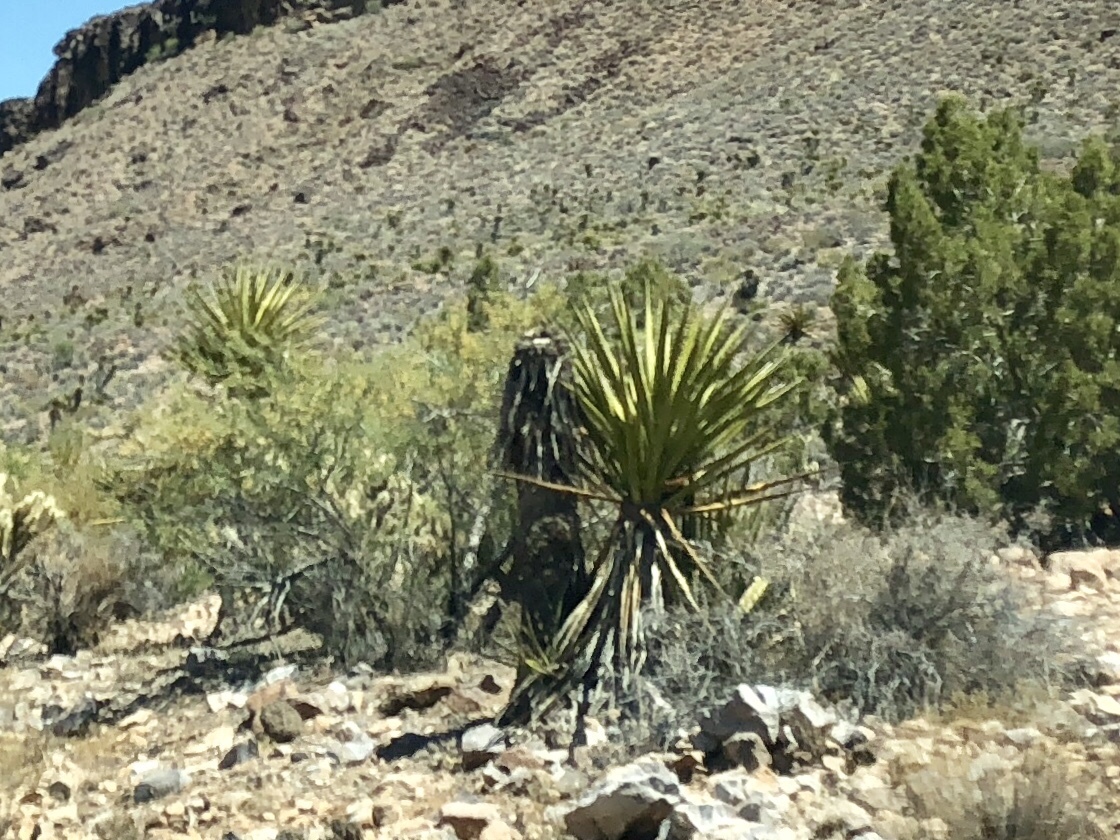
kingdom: Plantae
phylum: Tracheophyta
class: Liliopsida
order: Asparagales
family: Asparagaceae
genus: Yucca
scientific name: Yucca schidigera
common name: Mojave yucca
